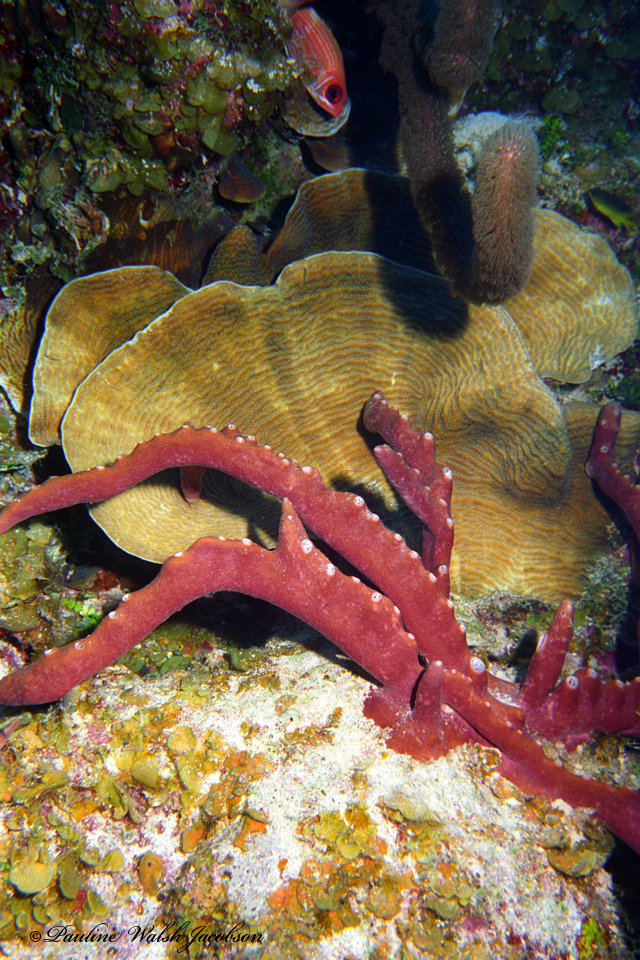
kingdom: Animalia
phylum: Porifera
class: Demospongiae
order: Scopalinida
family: Scopalinidae
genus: Svenzea
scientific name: Svenzea zeai
